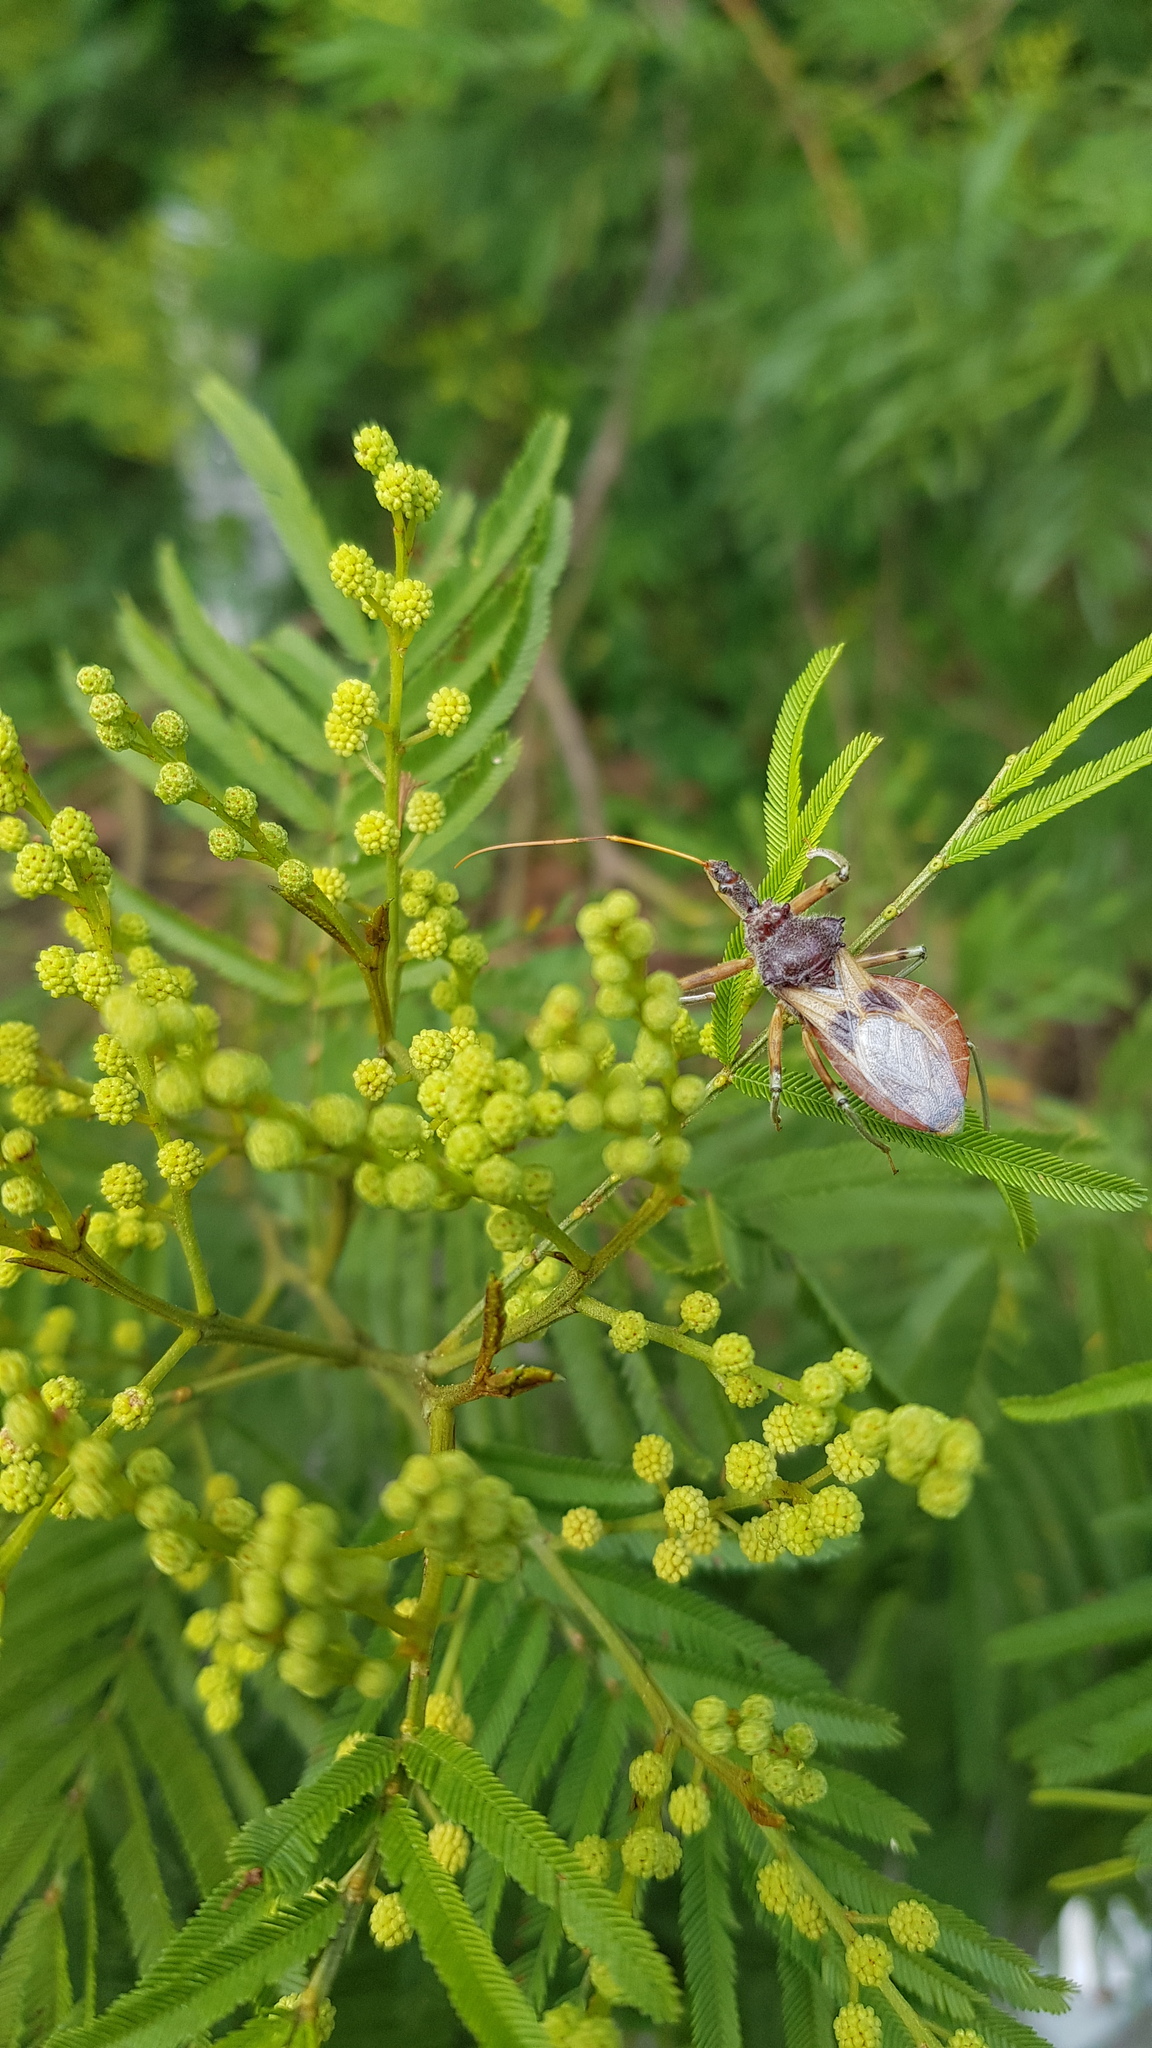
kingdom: Animalia
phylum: Arthropoda
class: Insecta
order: Hemiptera
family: Reduviidae
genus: Pristhesancus
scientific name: Pristhesancus plagipennis
